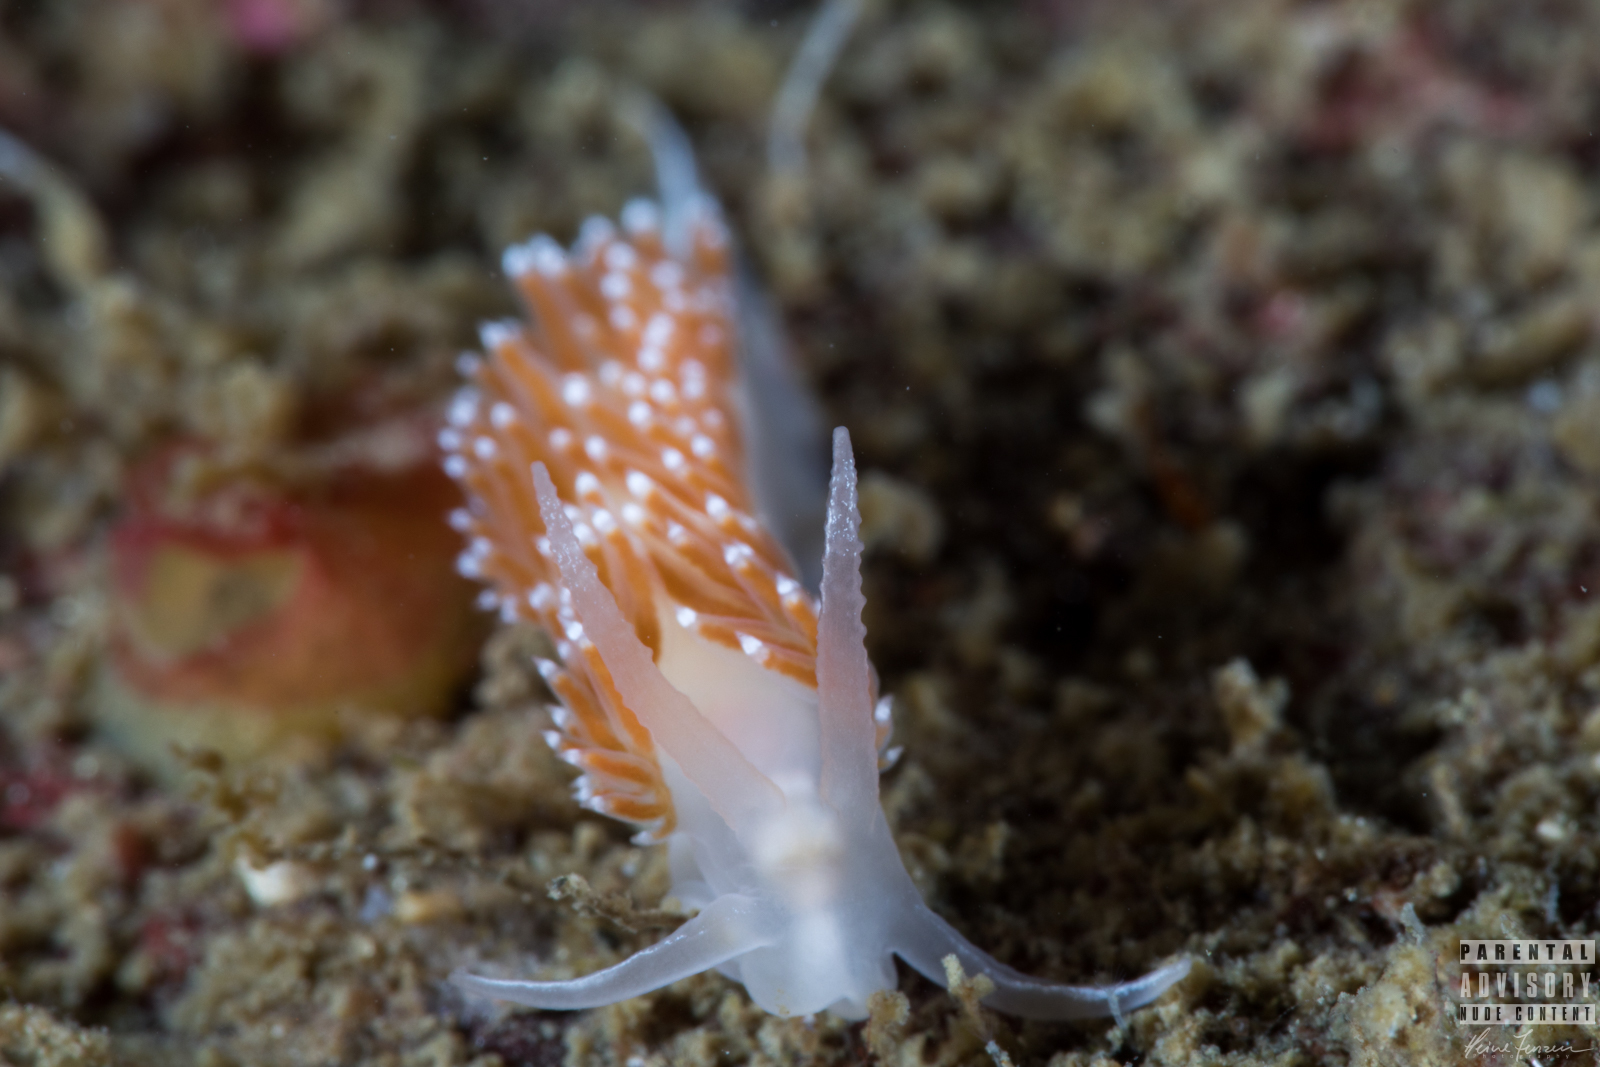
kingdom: Animalia
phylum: Mollusca
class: Gastropoda
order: Nudibranchia
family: Coryphellidae
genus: Coryphella
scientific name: Coryphella verrucosa
